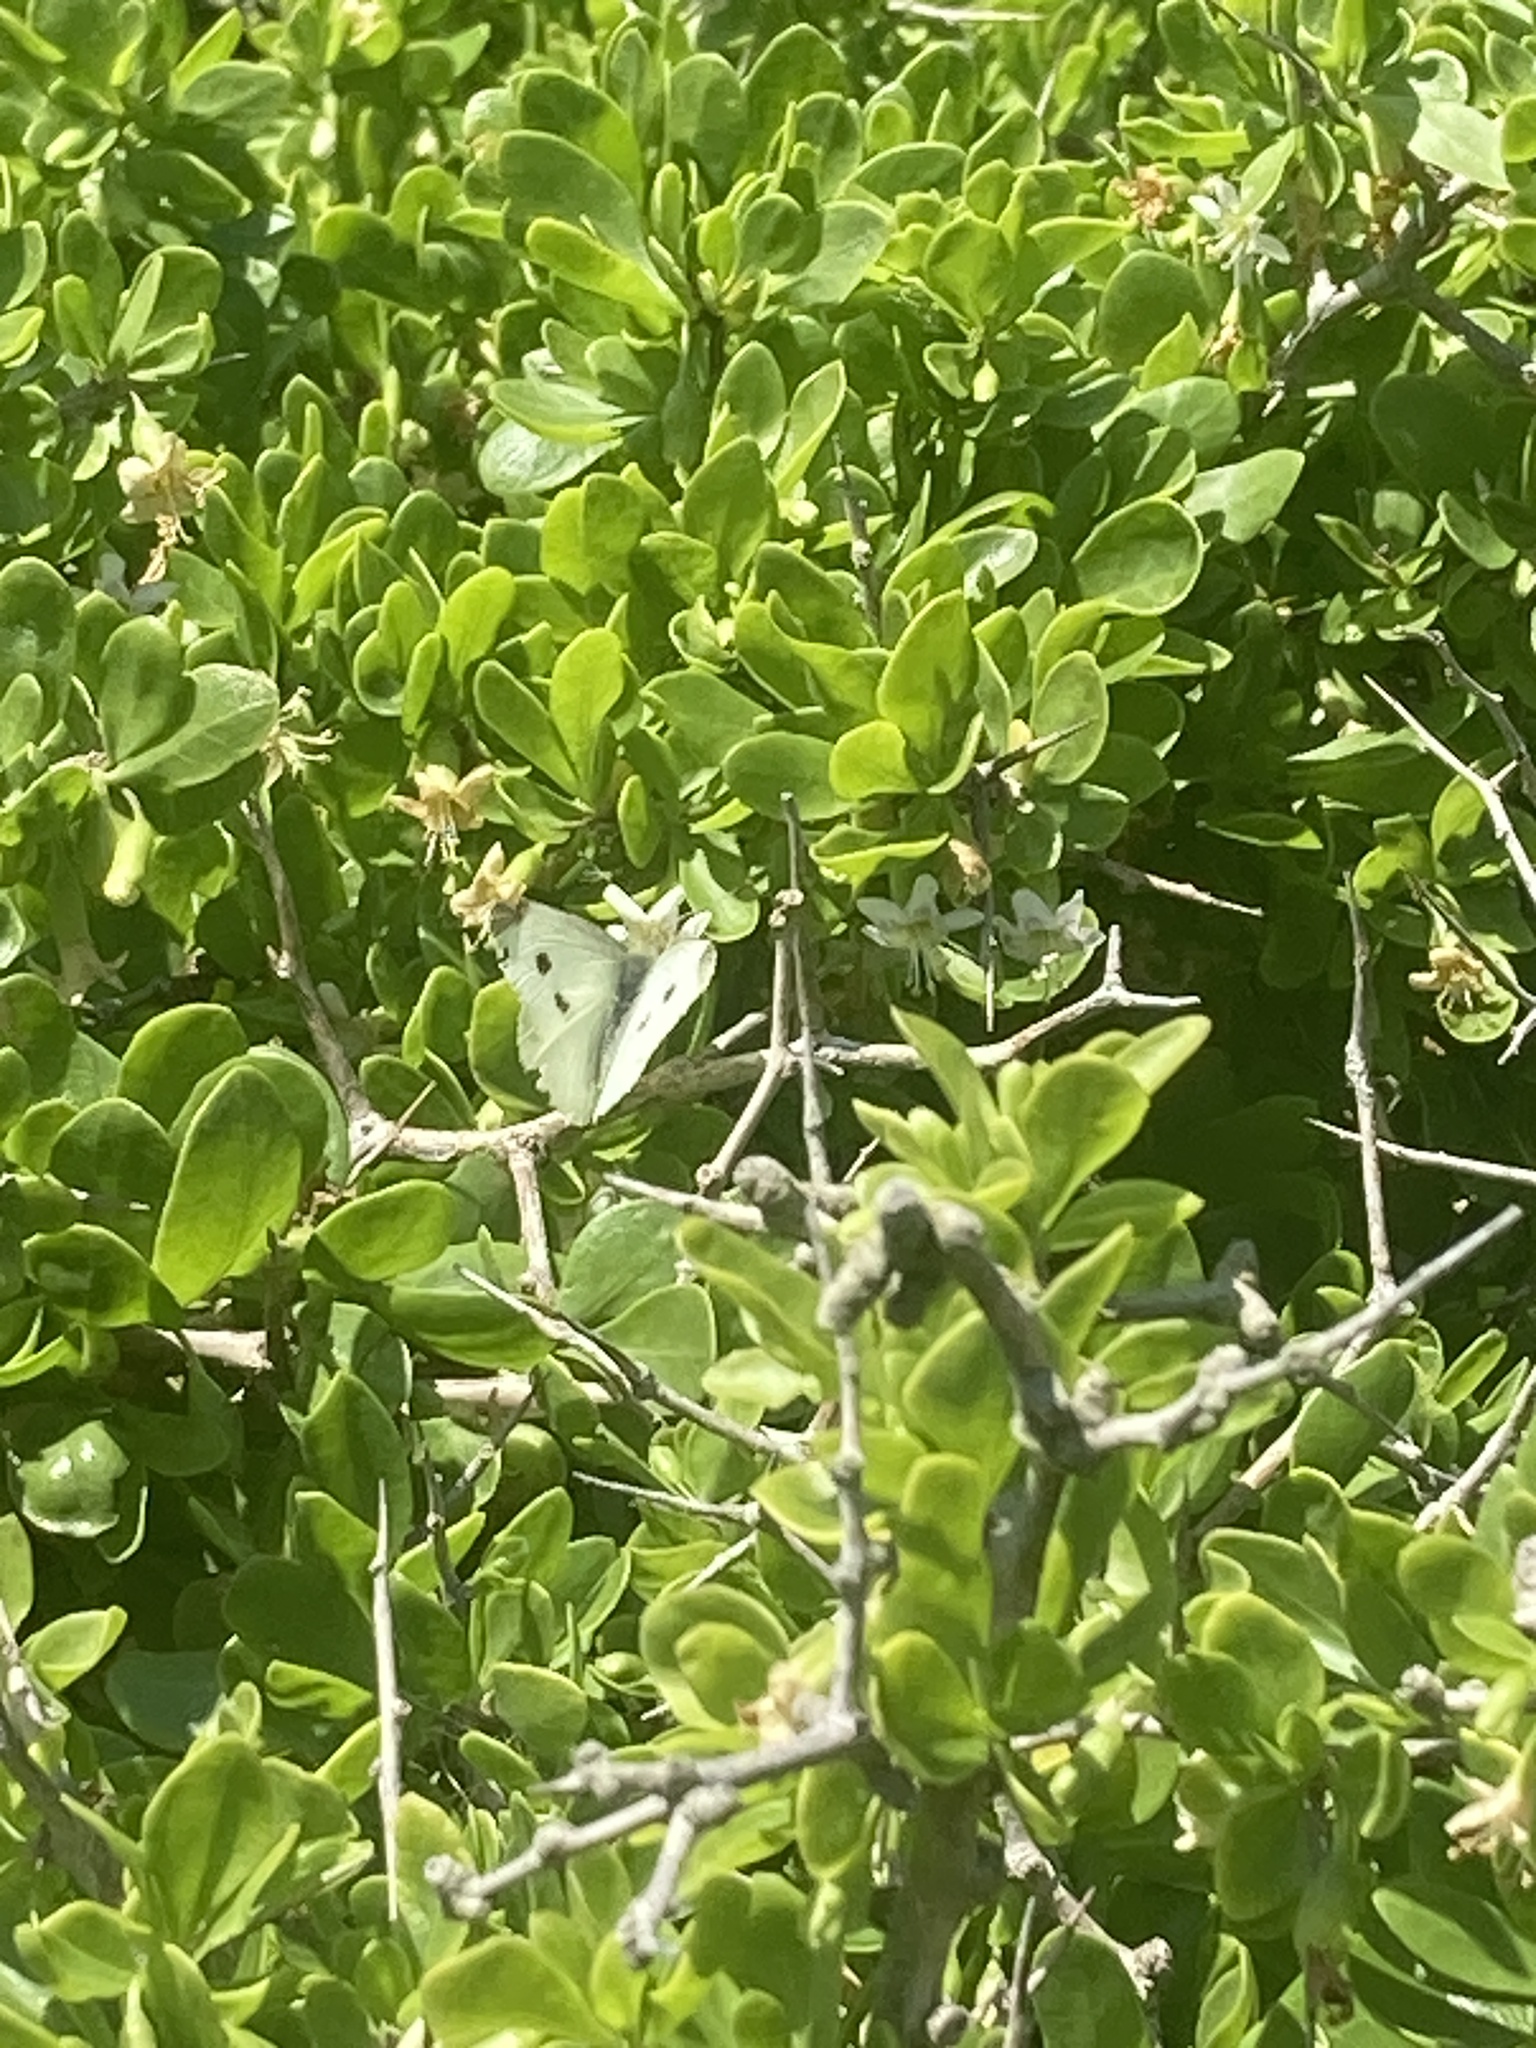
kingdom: Animalia
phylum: Arthropoda
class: Insecta
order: Lepidoptera
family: Pieridae
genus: Pieris
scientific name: Pieris rapae
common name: Small white
